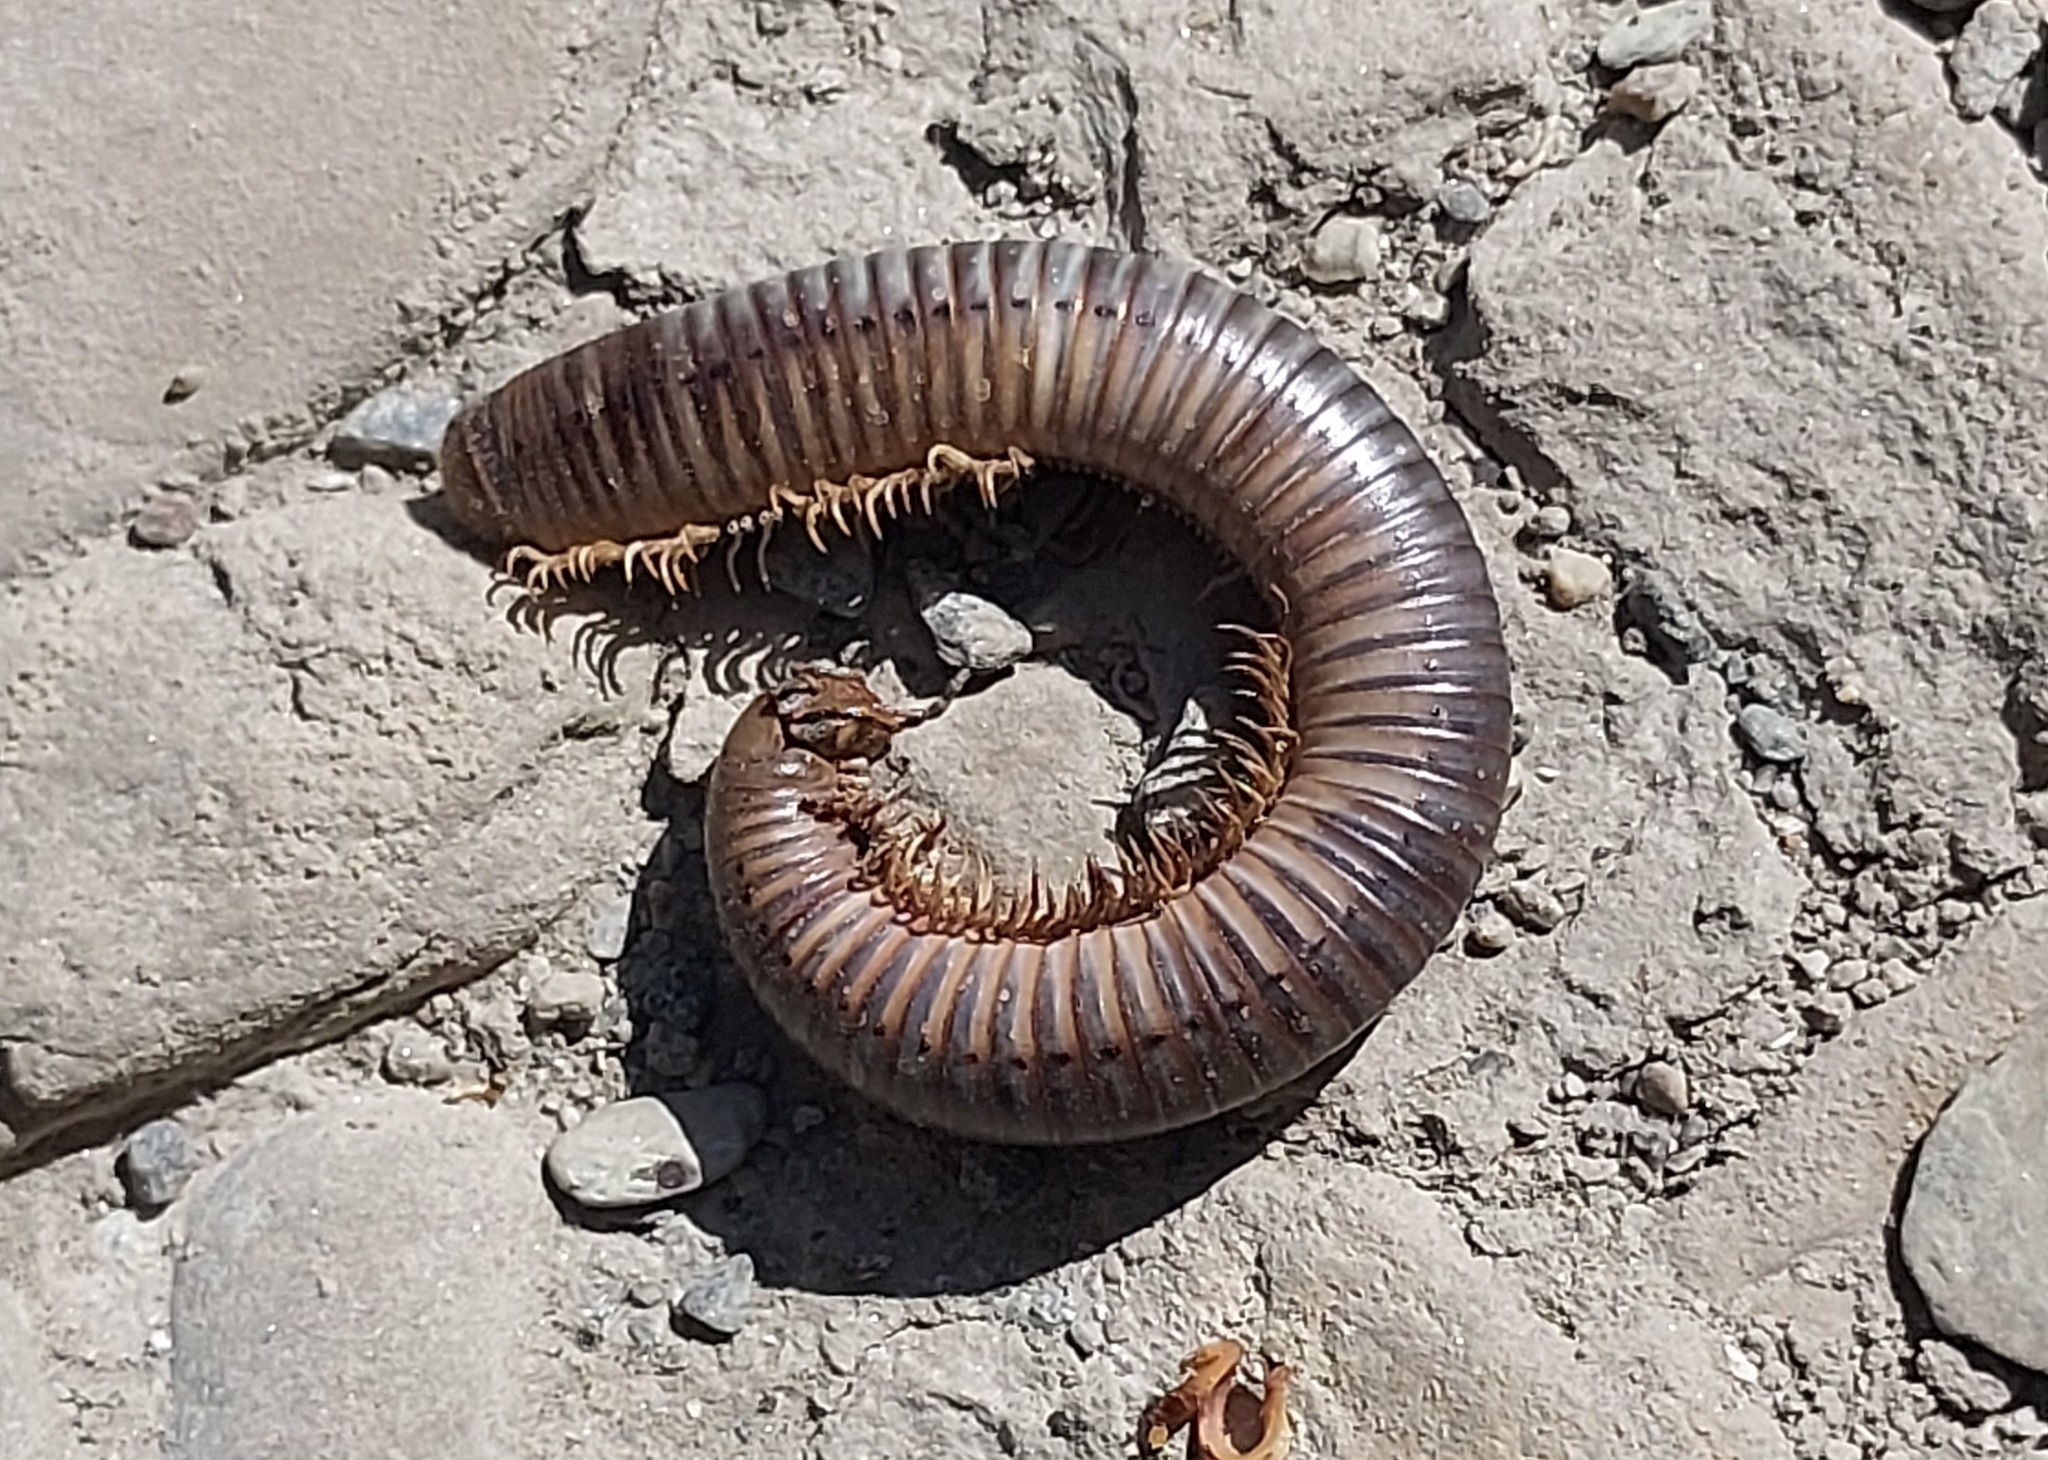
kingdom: Animalia
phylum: Arthropoda
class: Diplopoda
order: Julida
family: Julidae
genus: Pachyiulus
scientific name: Pachyiulus flavipes
